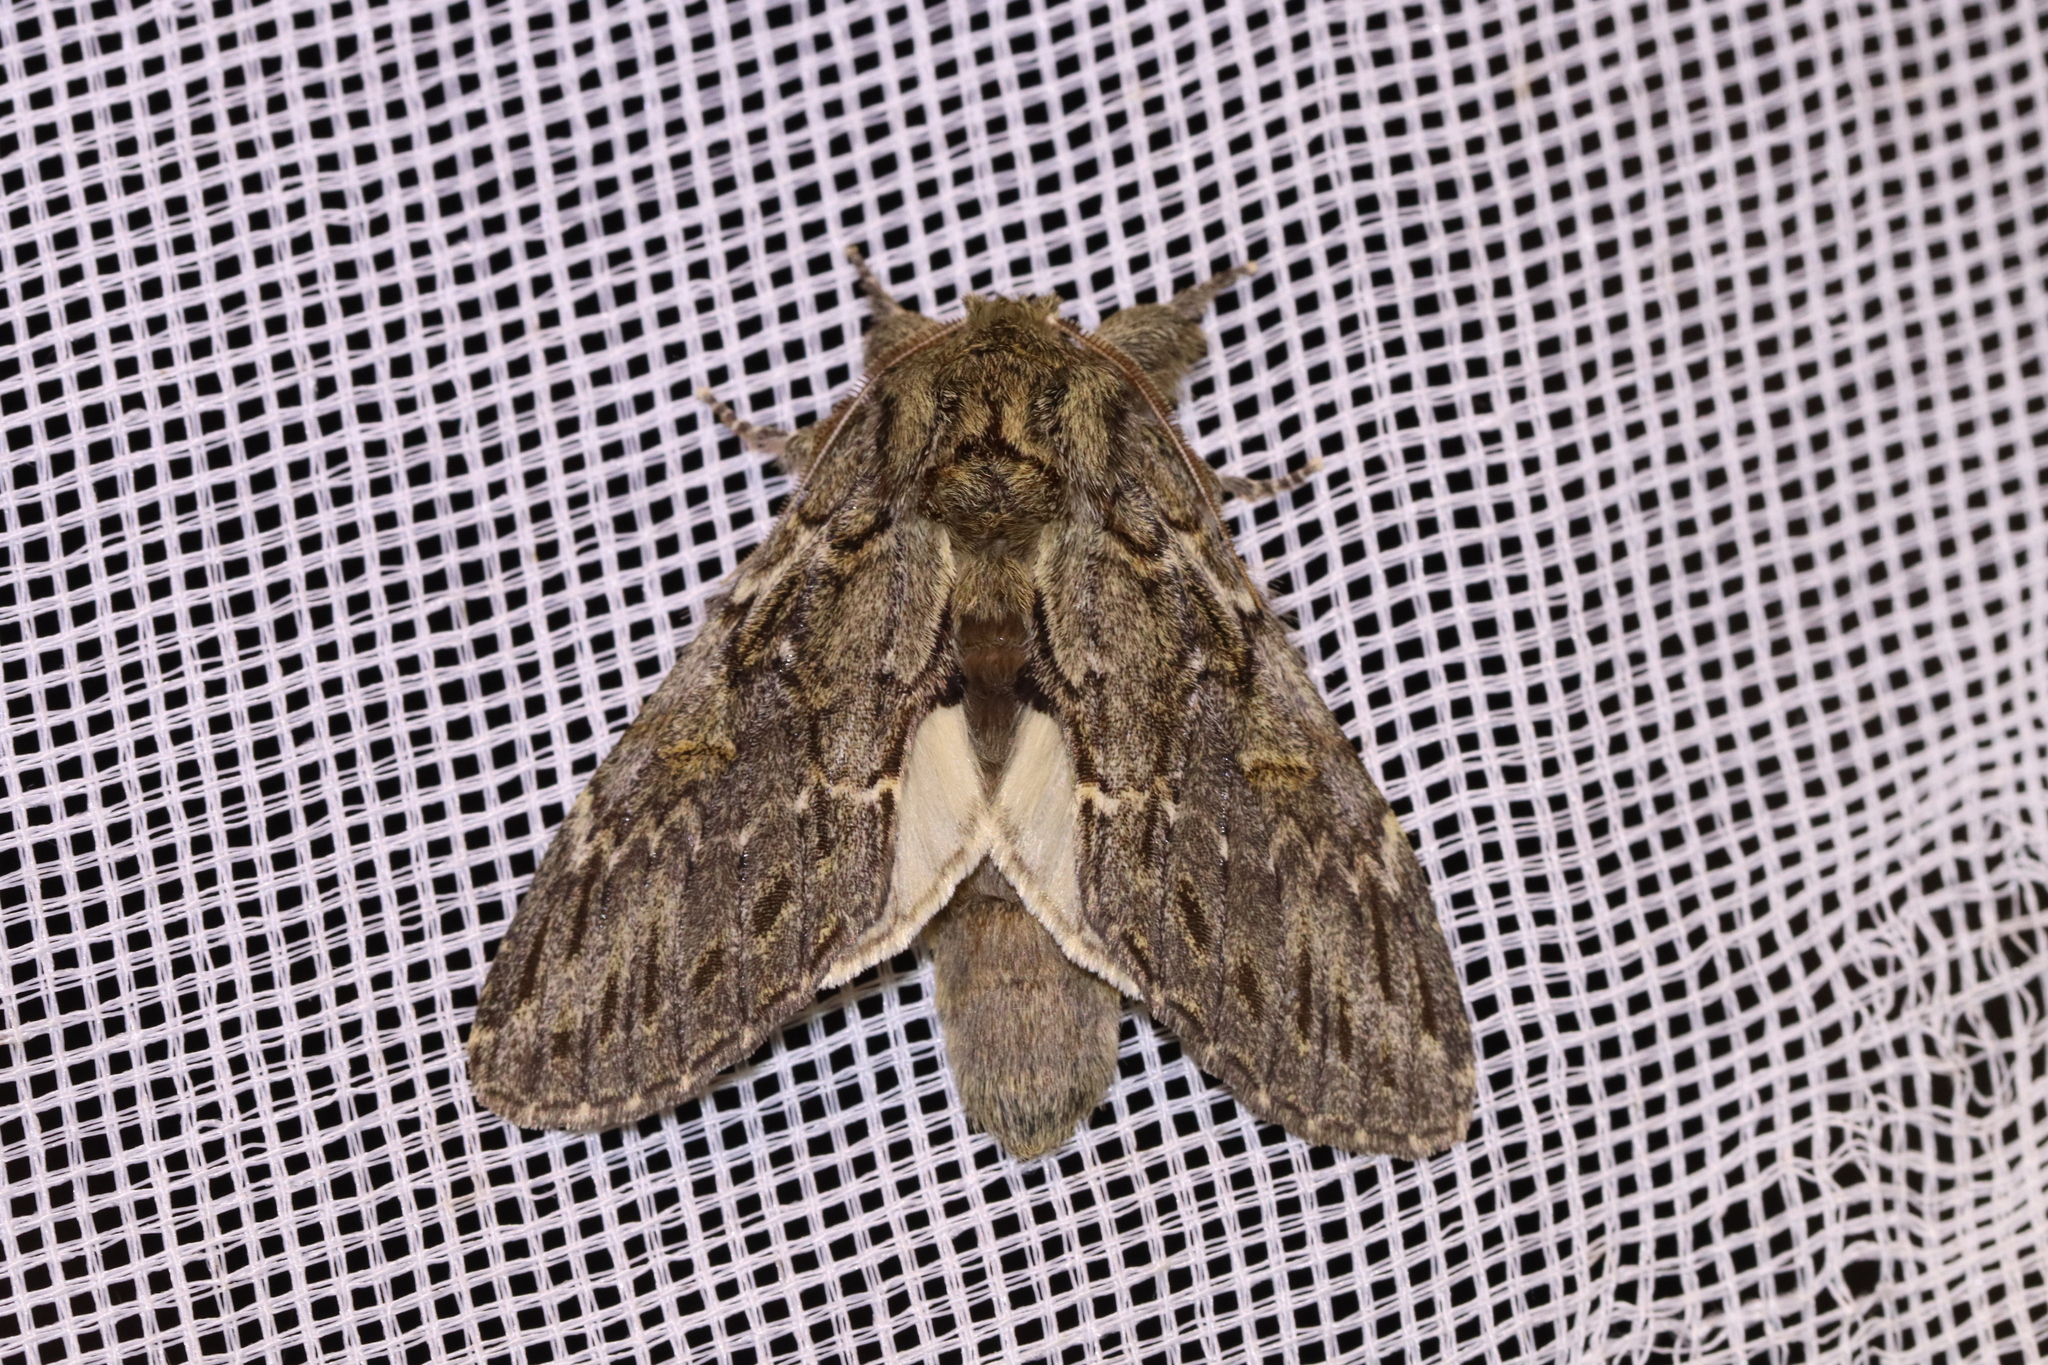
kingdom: Animalia
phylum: Arthropoda
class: Insecta
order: Lepidoptera
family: Notodontidae
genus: Peridea
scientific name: Peridea anceps
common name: Great prominent
